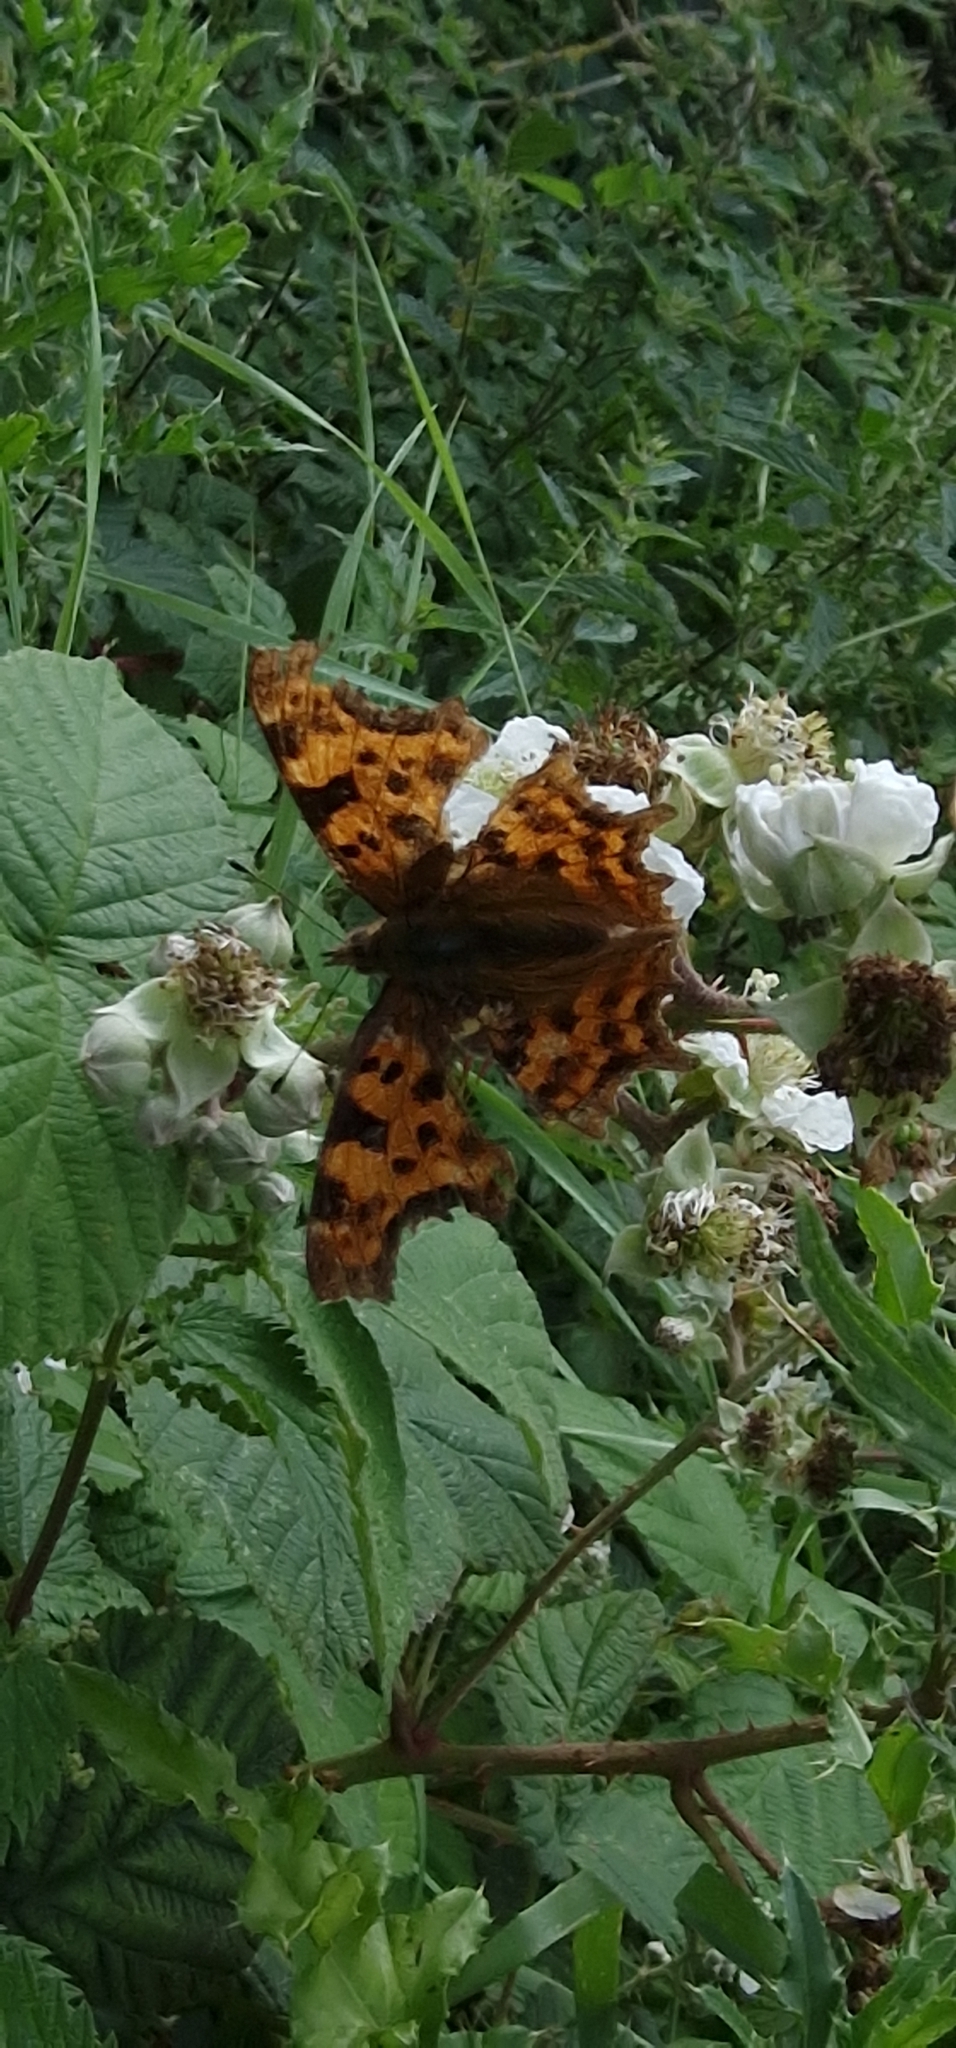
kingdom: Animalia
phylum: Arthropoda
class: Insecta
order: Lepidoptera
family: Nymphalidae
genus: Polygonia
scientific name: Polygonia c-album
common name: Comma
